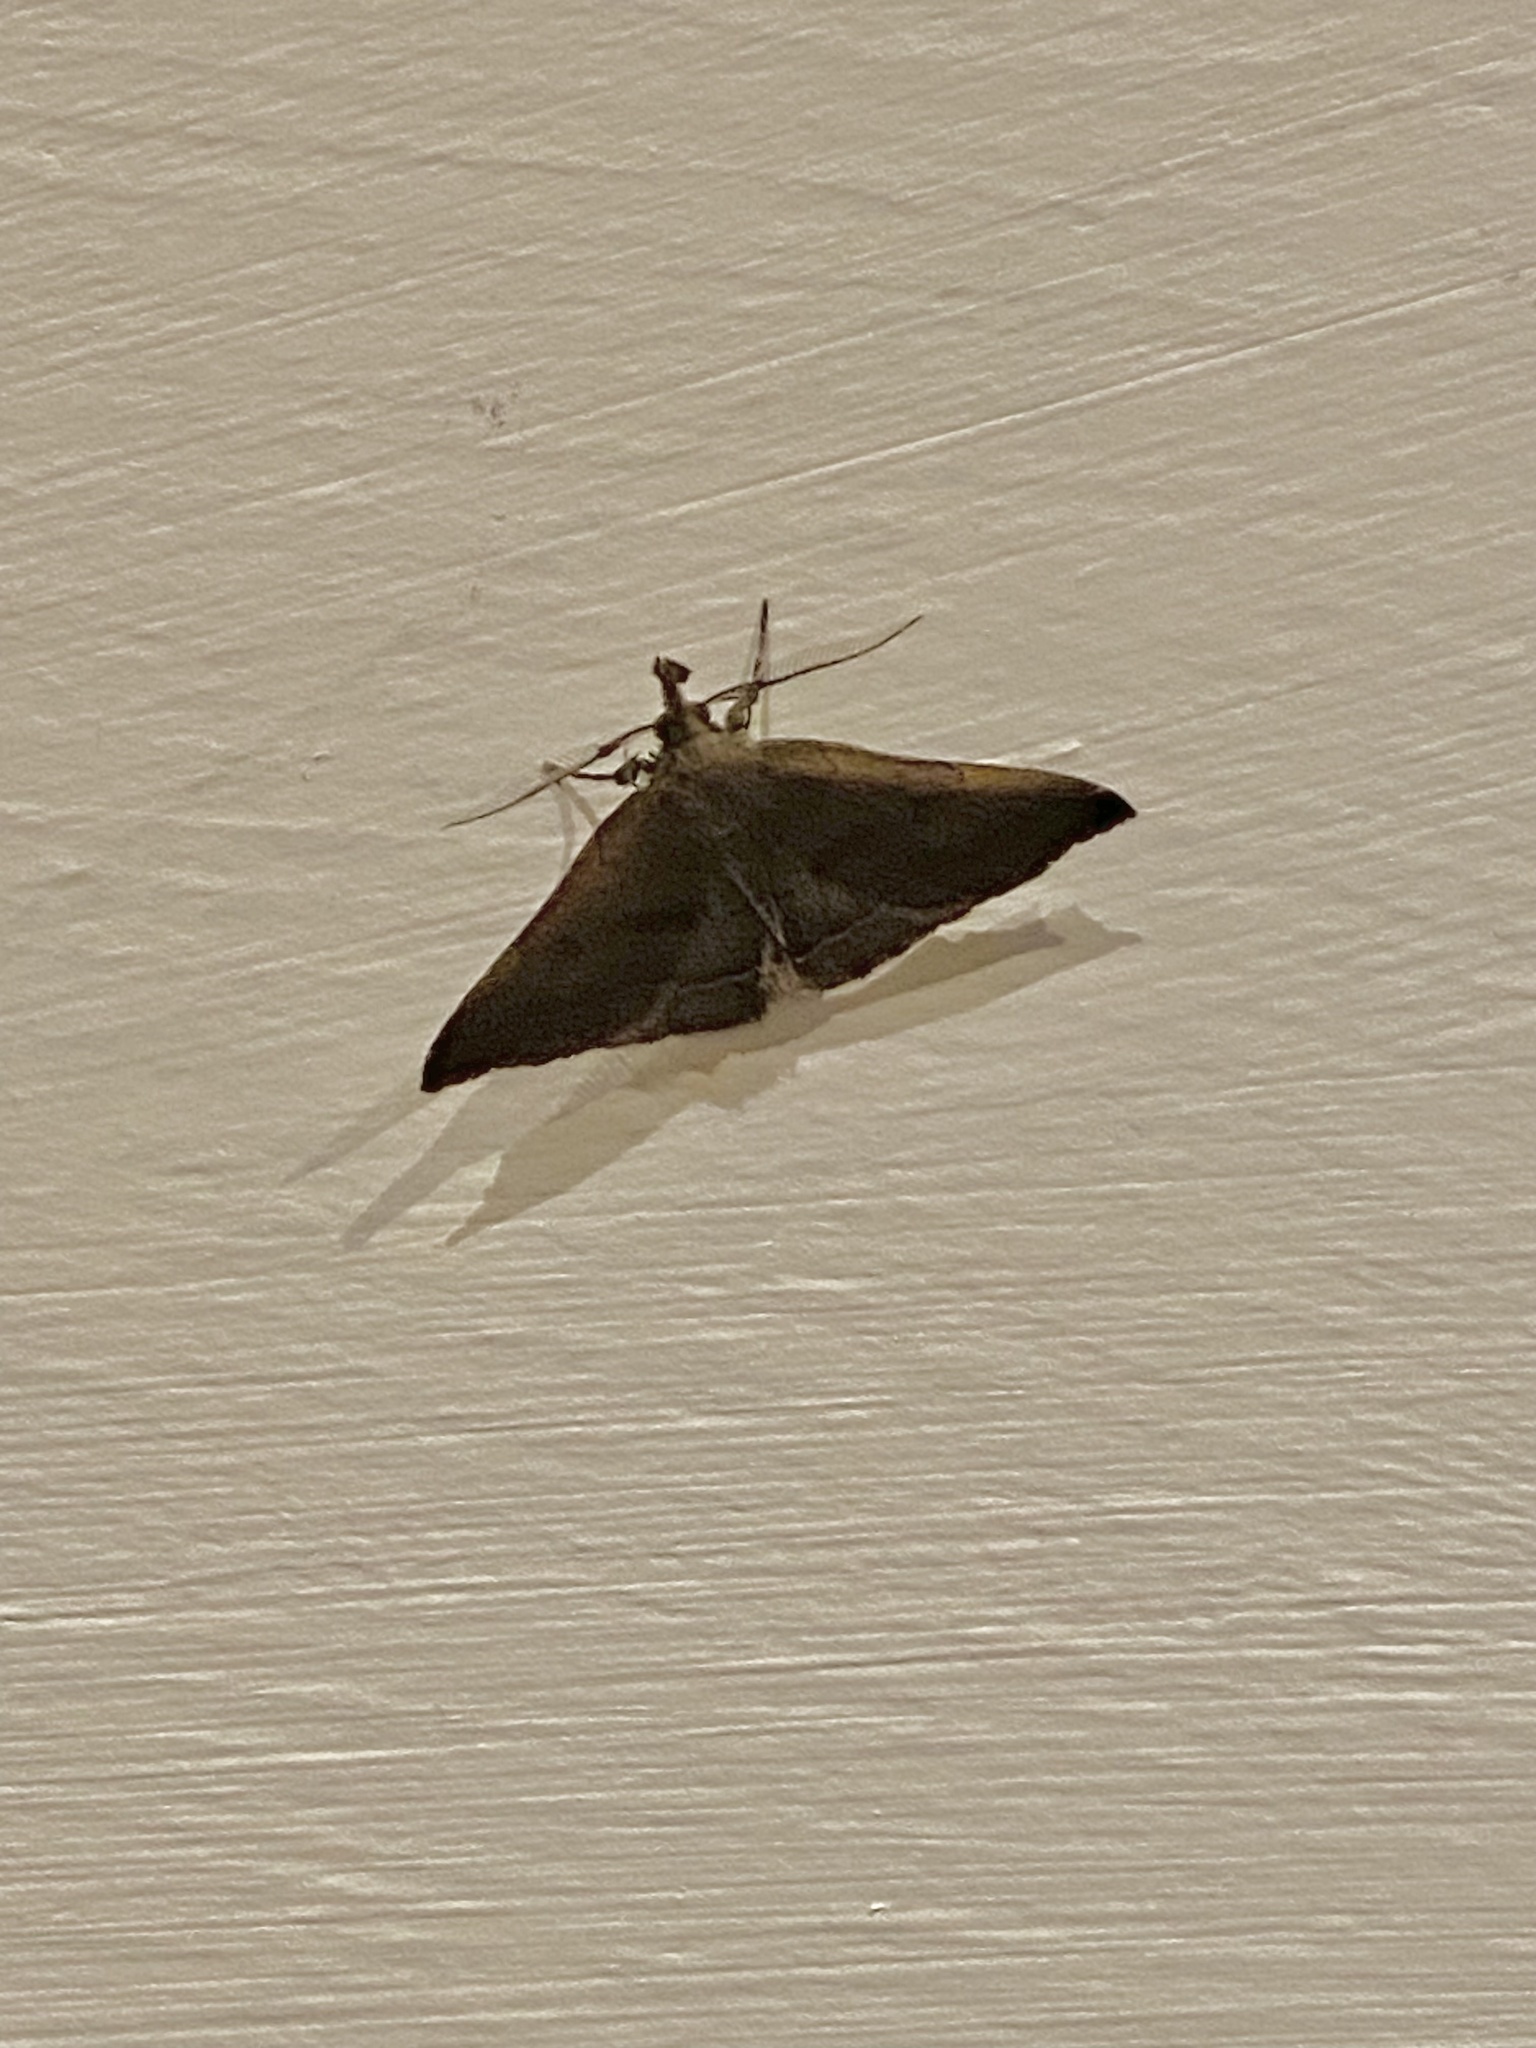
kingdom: Animalia
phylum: Arthropoda
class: Insecta
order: Lepidoptera
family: Erebidae
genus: Pechipogo
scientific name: Pechipogo plumigeralis
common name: Plumed fan-foot
